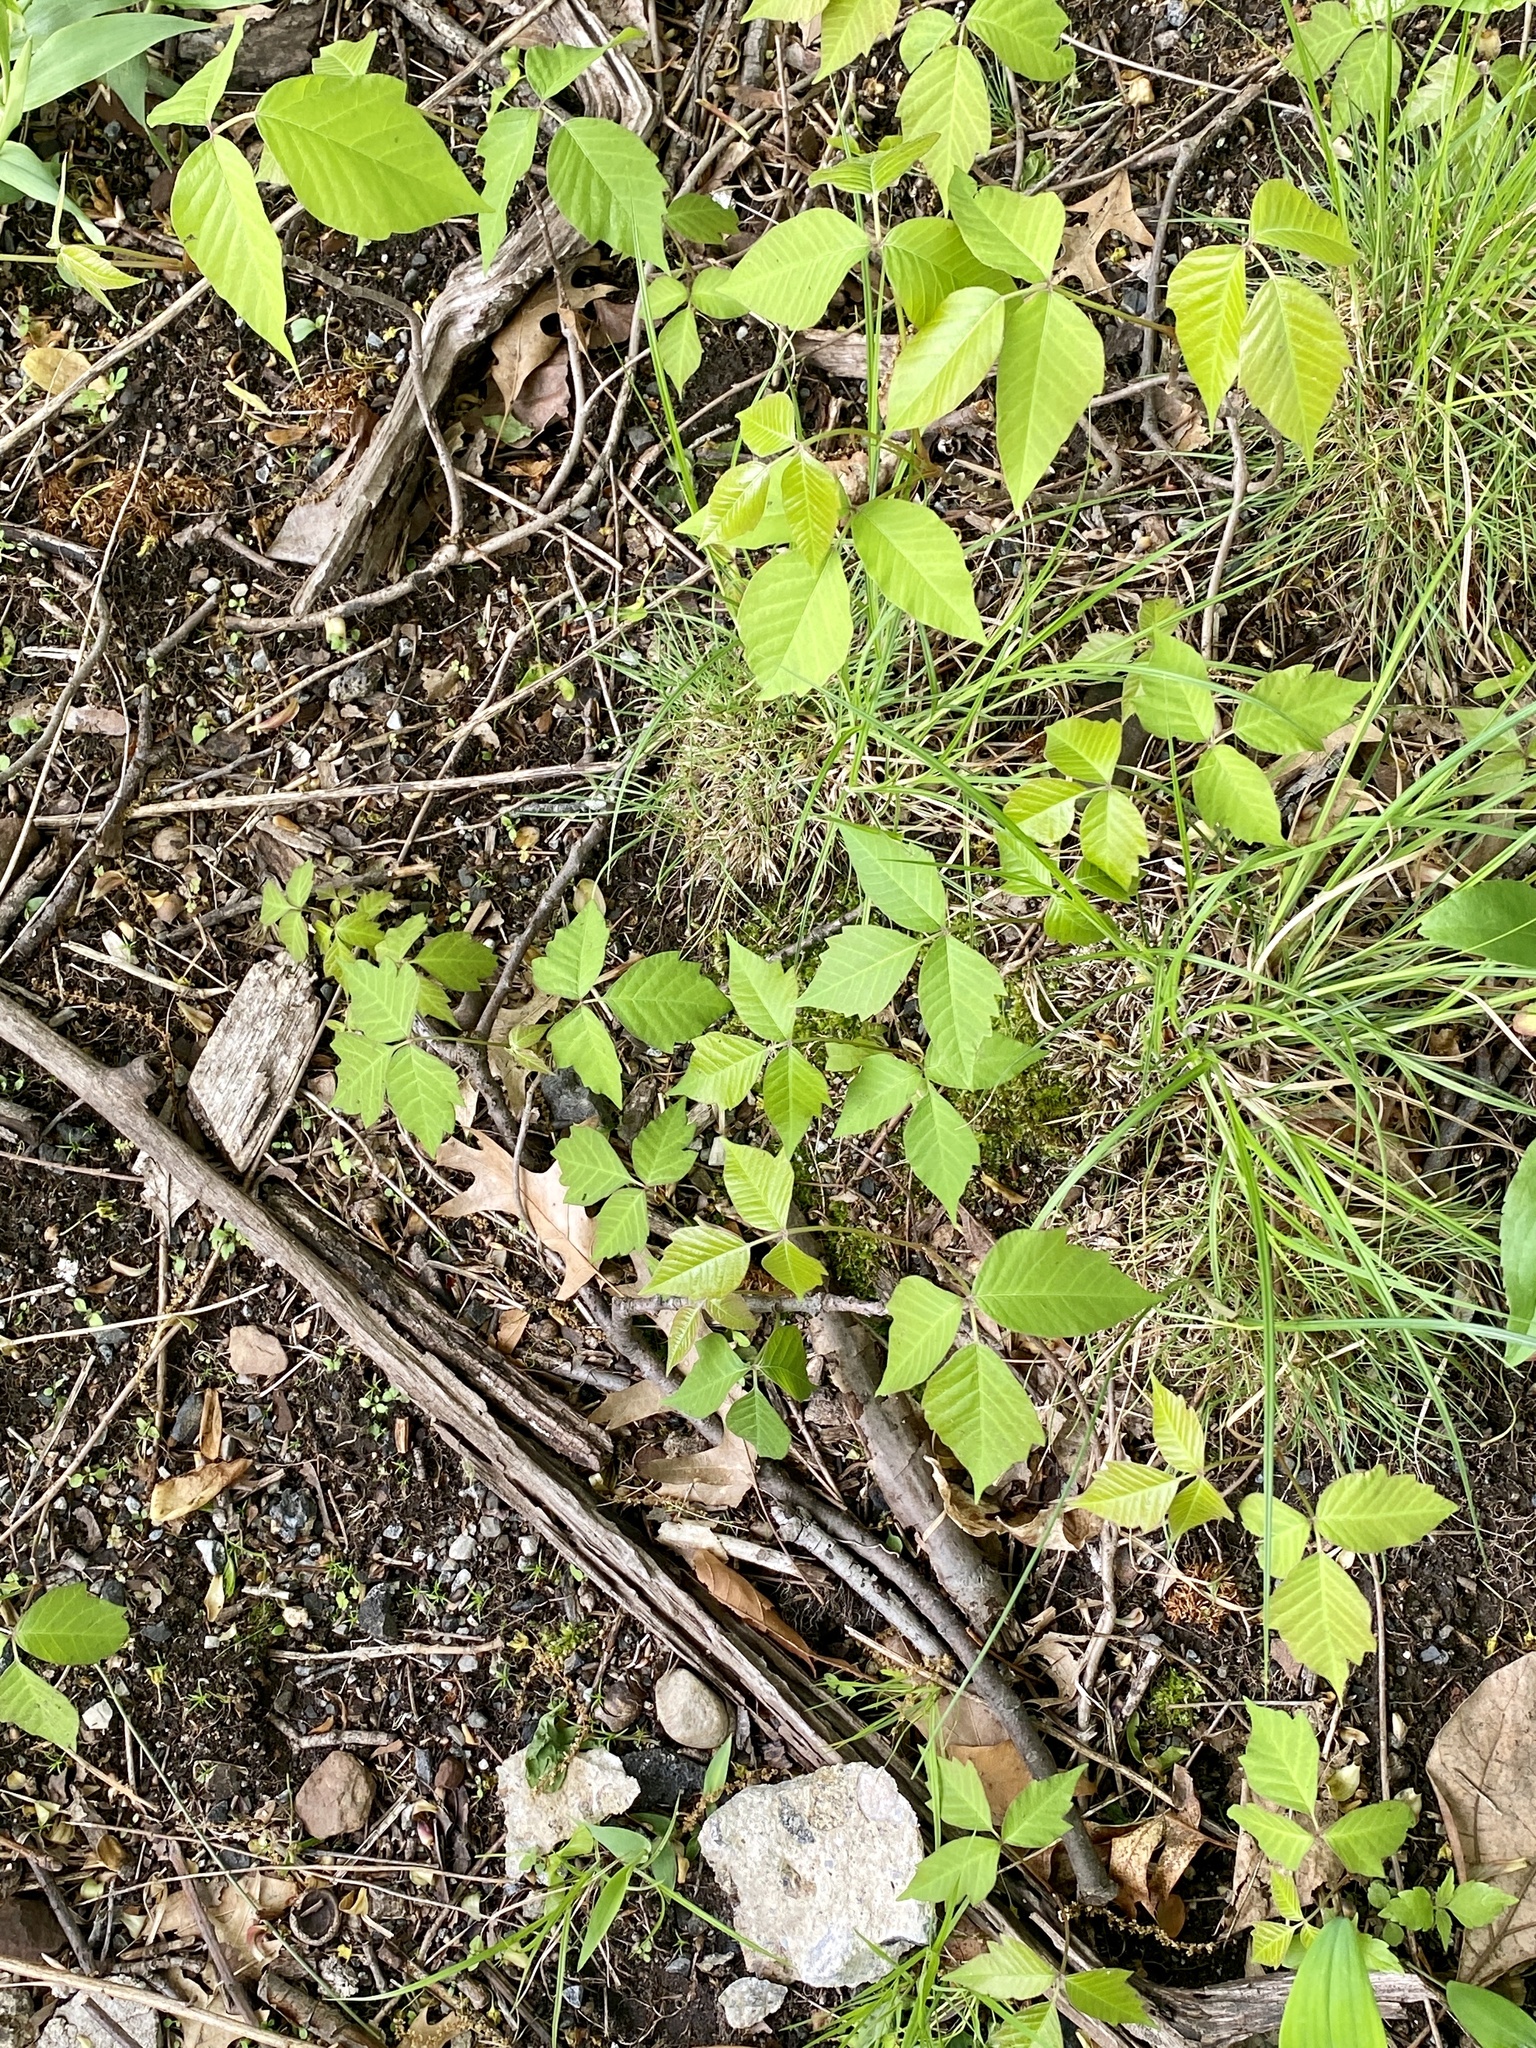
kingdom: Plantae
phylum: Tracheophyta
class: Magnoliopsida
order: Sapindales
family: Anacardiaceae
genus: Toxicodendron
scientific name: Toxicodendron radicans
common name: Poison ivy
